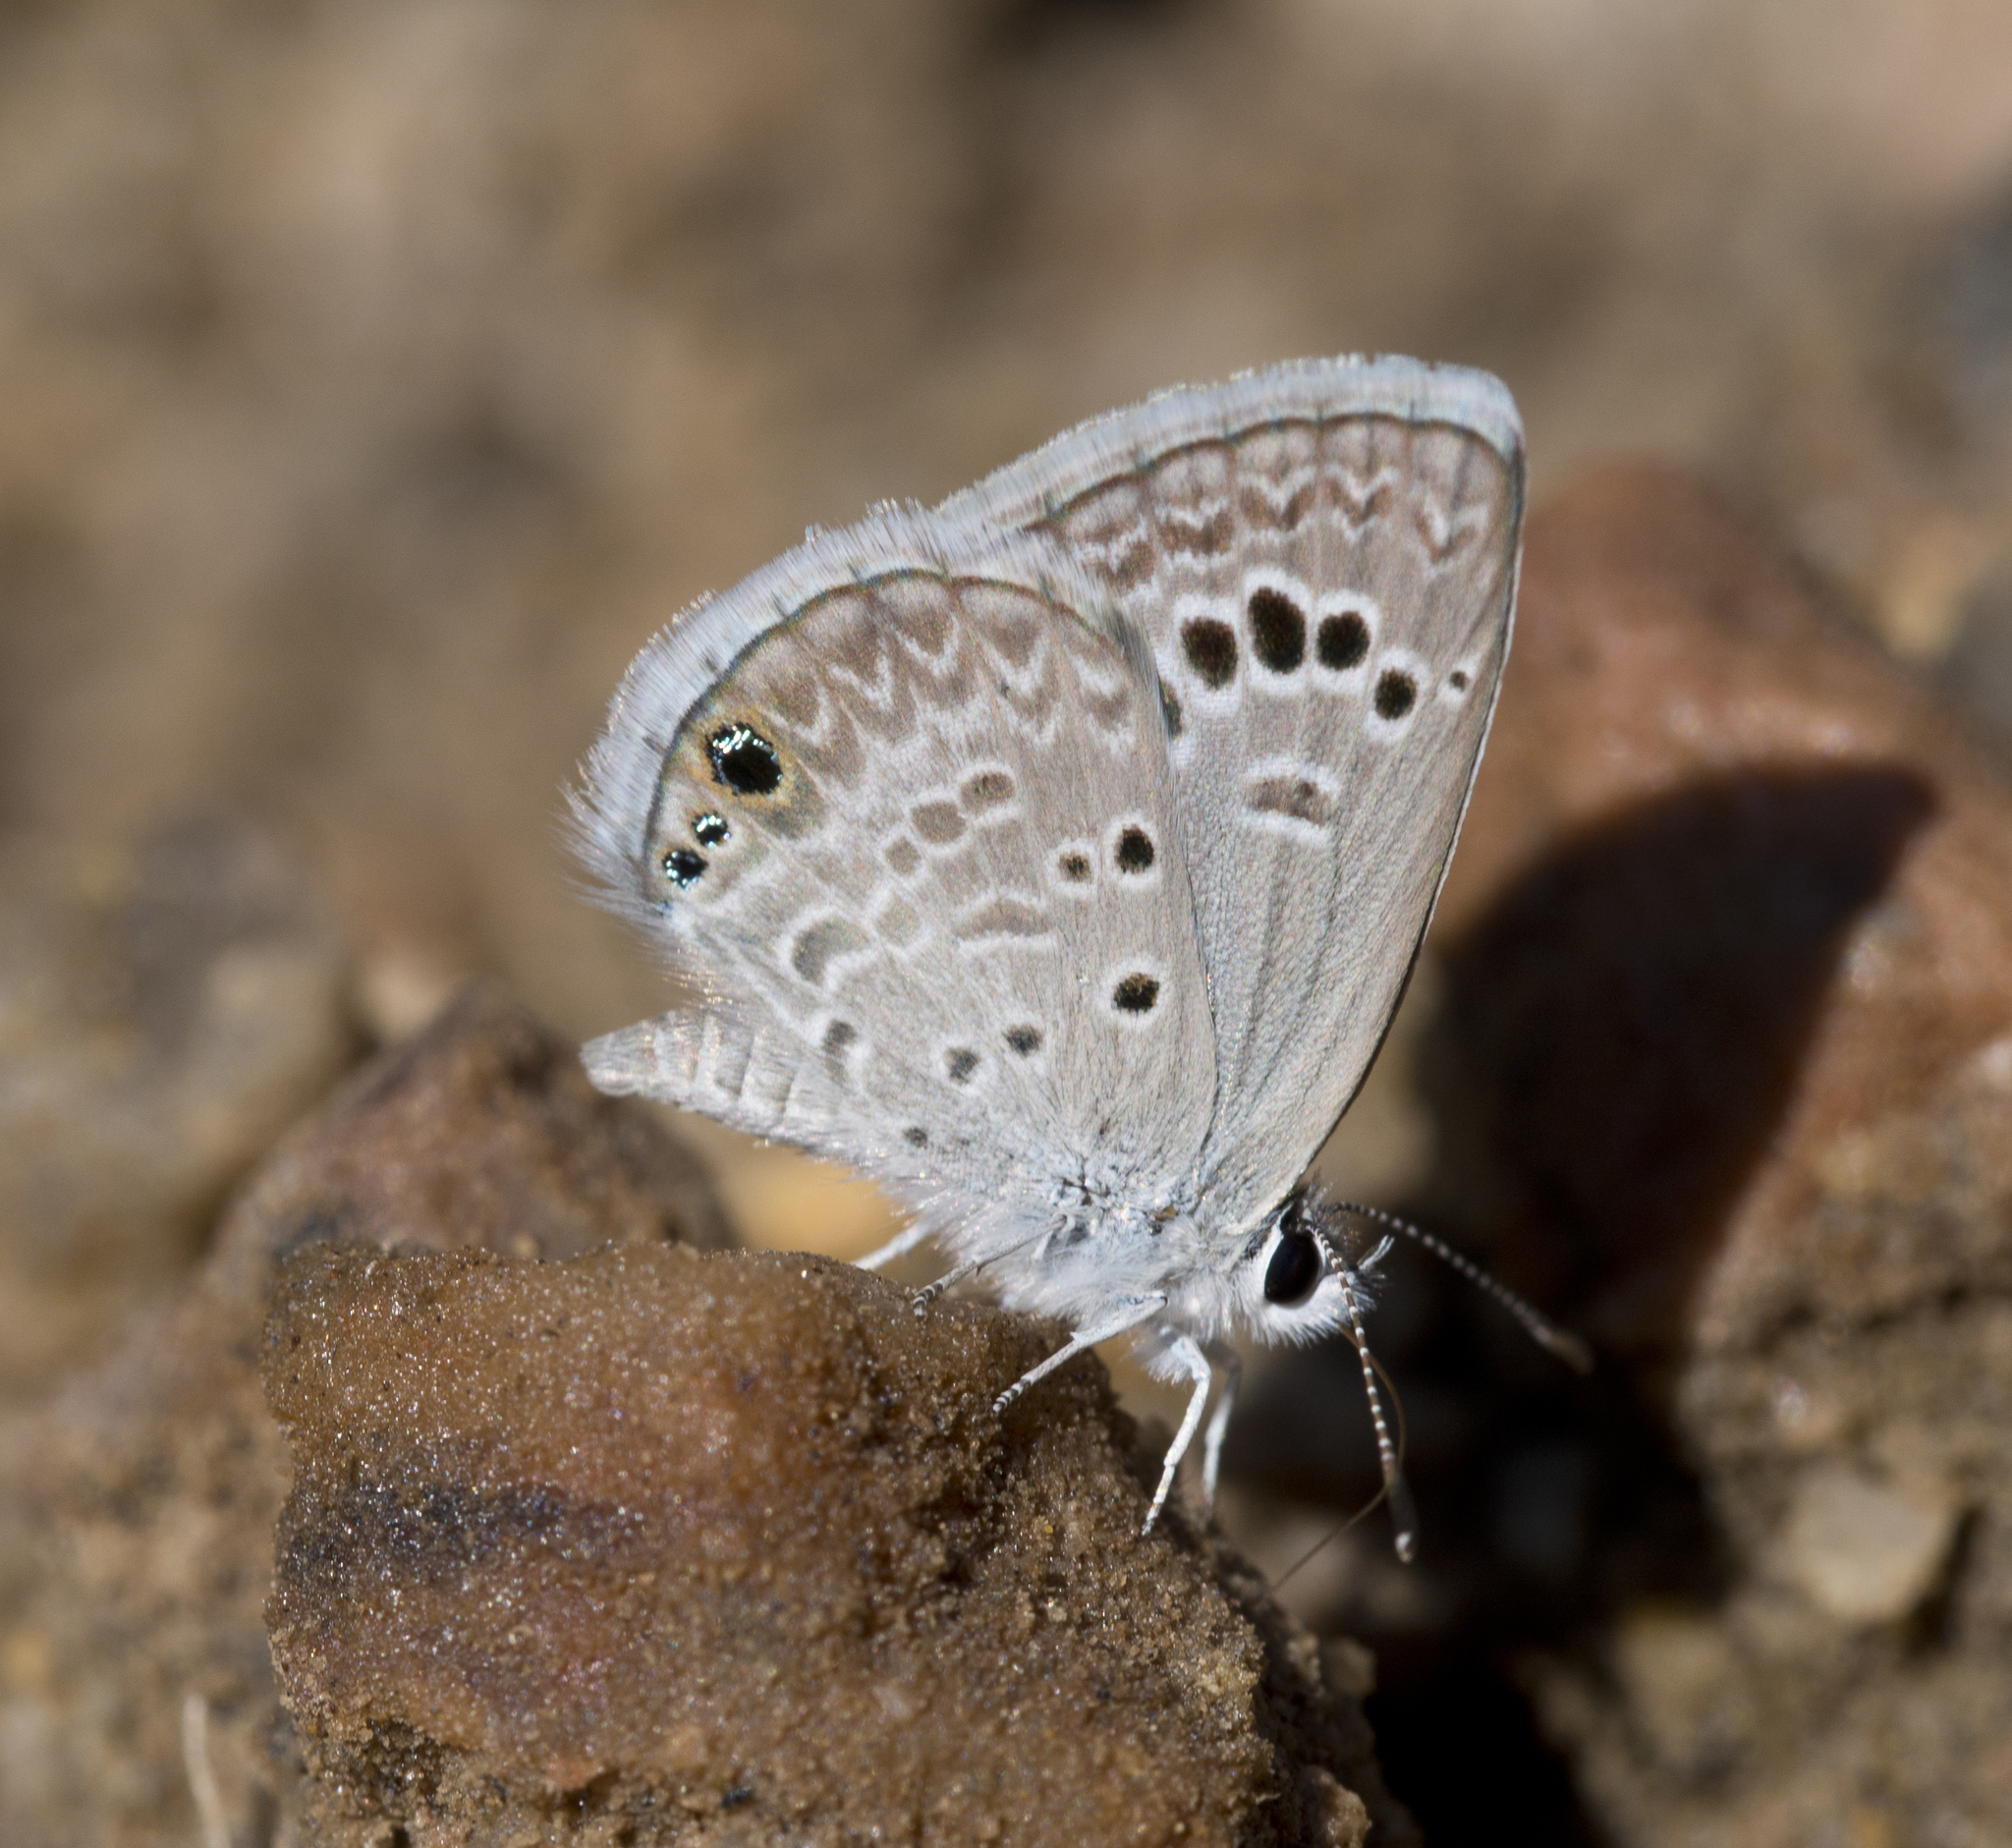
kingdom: Animalia
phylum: Arthropoda
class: Insecta
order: Lepidoptera
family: Lycaenidae
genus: Echinargus
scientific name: Echinargus isola
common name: Reakirt's blue
